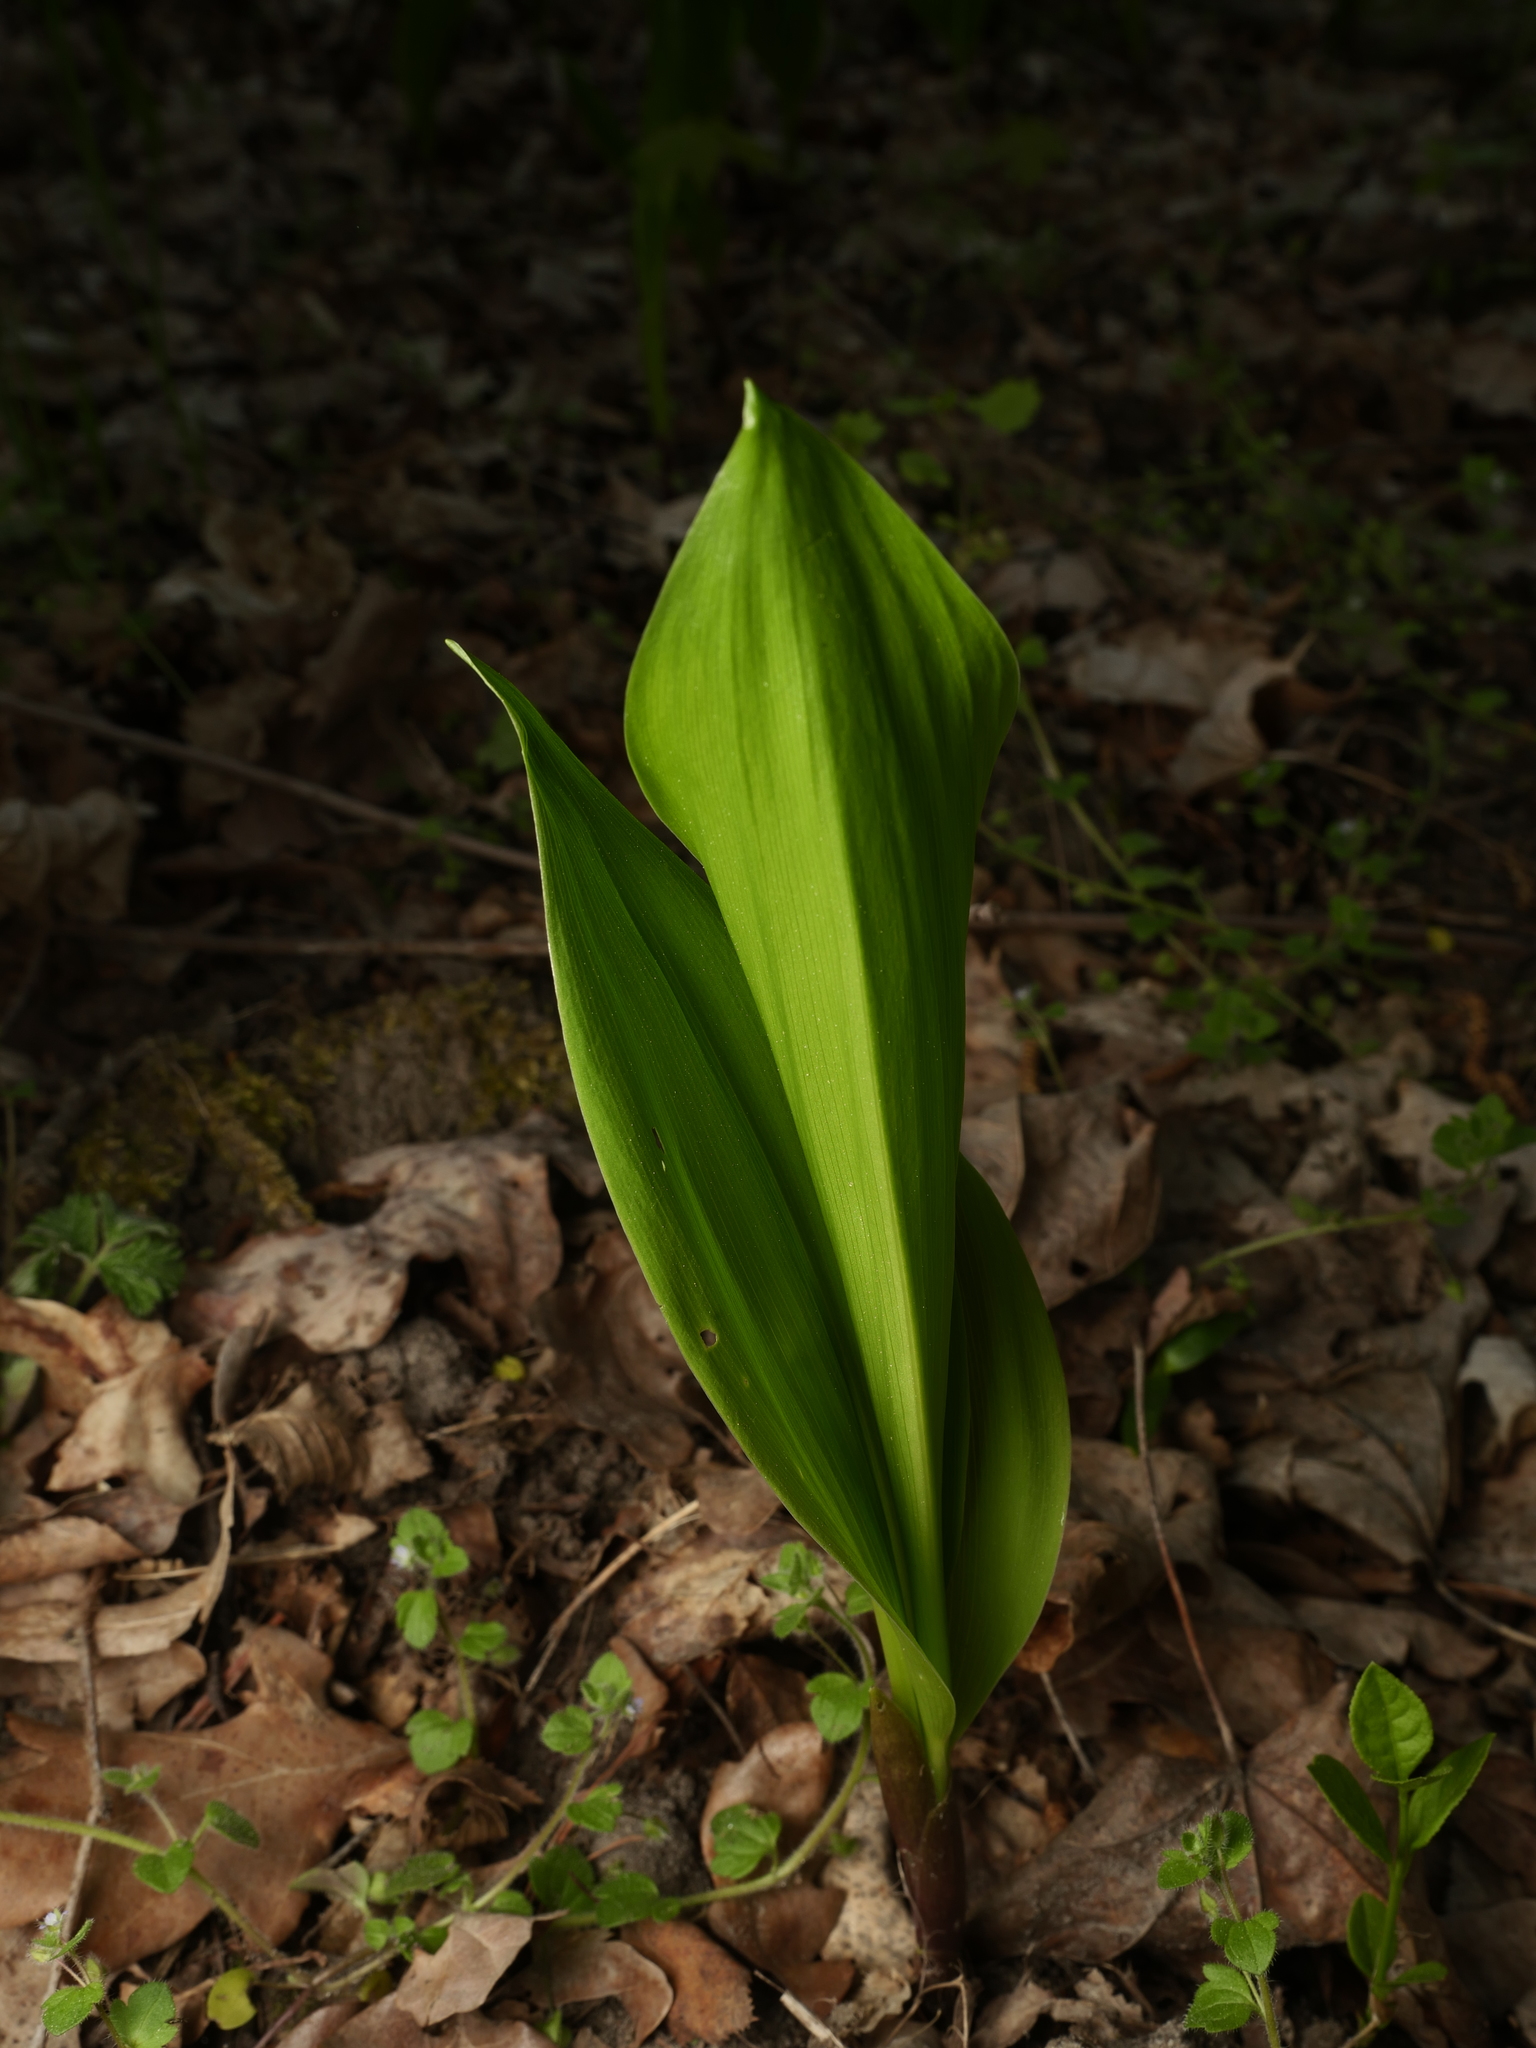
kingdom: Plantae
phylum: Tracheophyta
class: Liliopsida
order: Asparagales
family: Asparagaceae
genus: Convallaria
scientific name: Convallaria majalis
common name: Lily-of-the-valley
